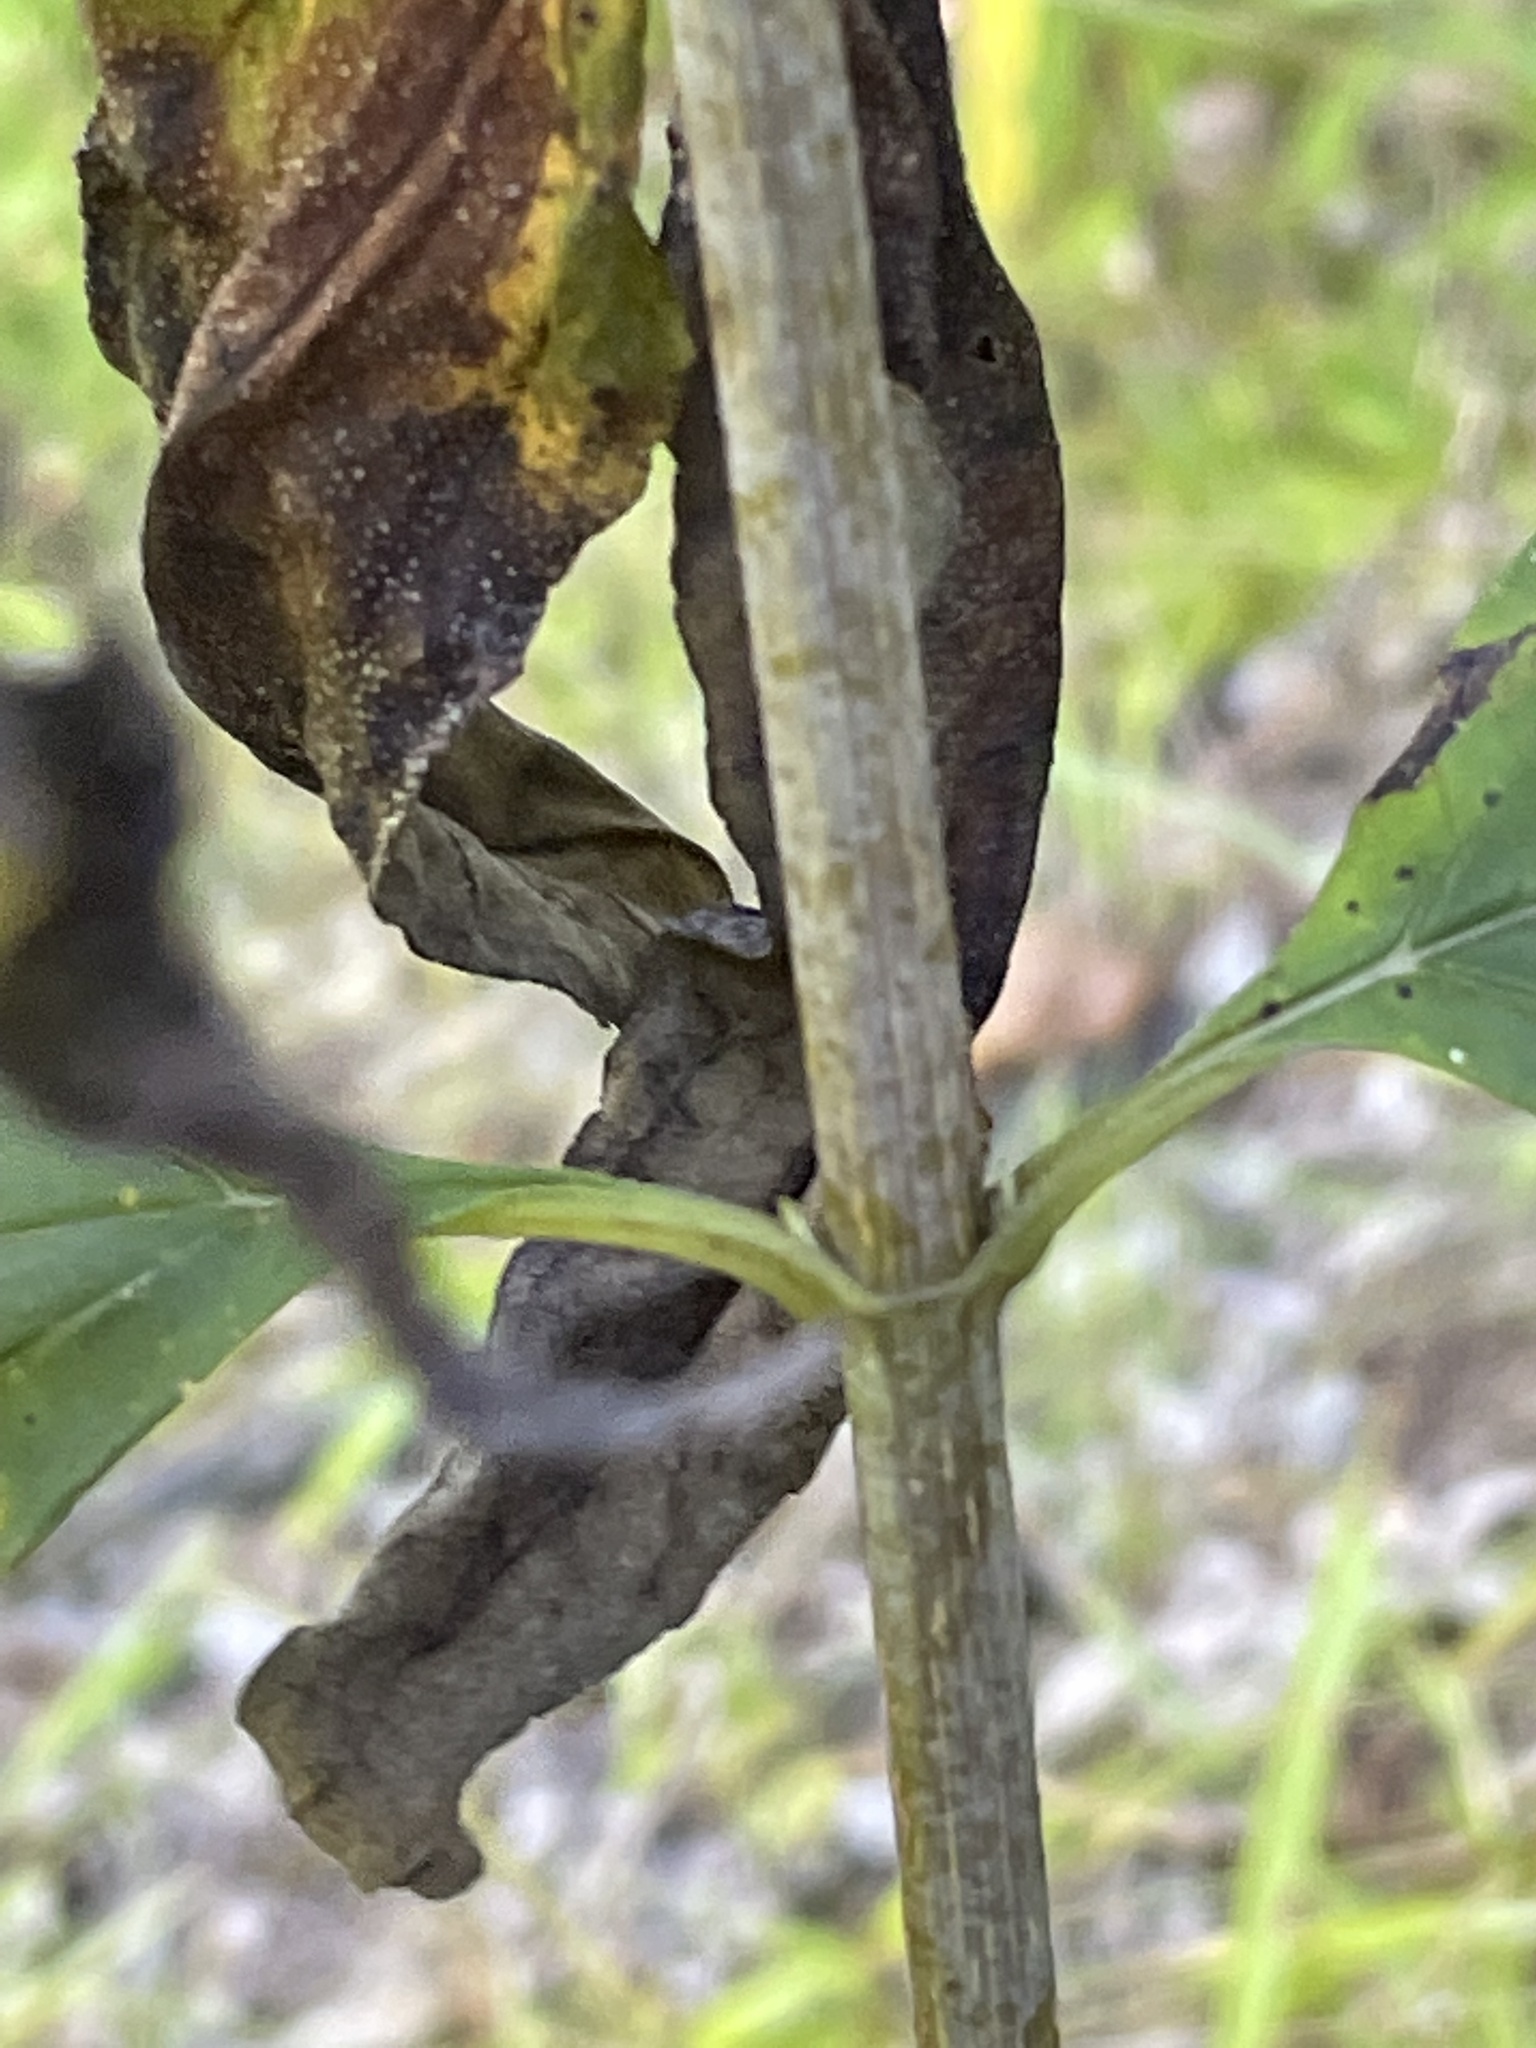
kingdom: Plantae
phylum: Tracheophyta
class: Magnoliopsida
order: Asterales
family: Asteraceae
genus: Helianthus
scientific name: Helianthus microcephalus
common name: Woodland sunflower
